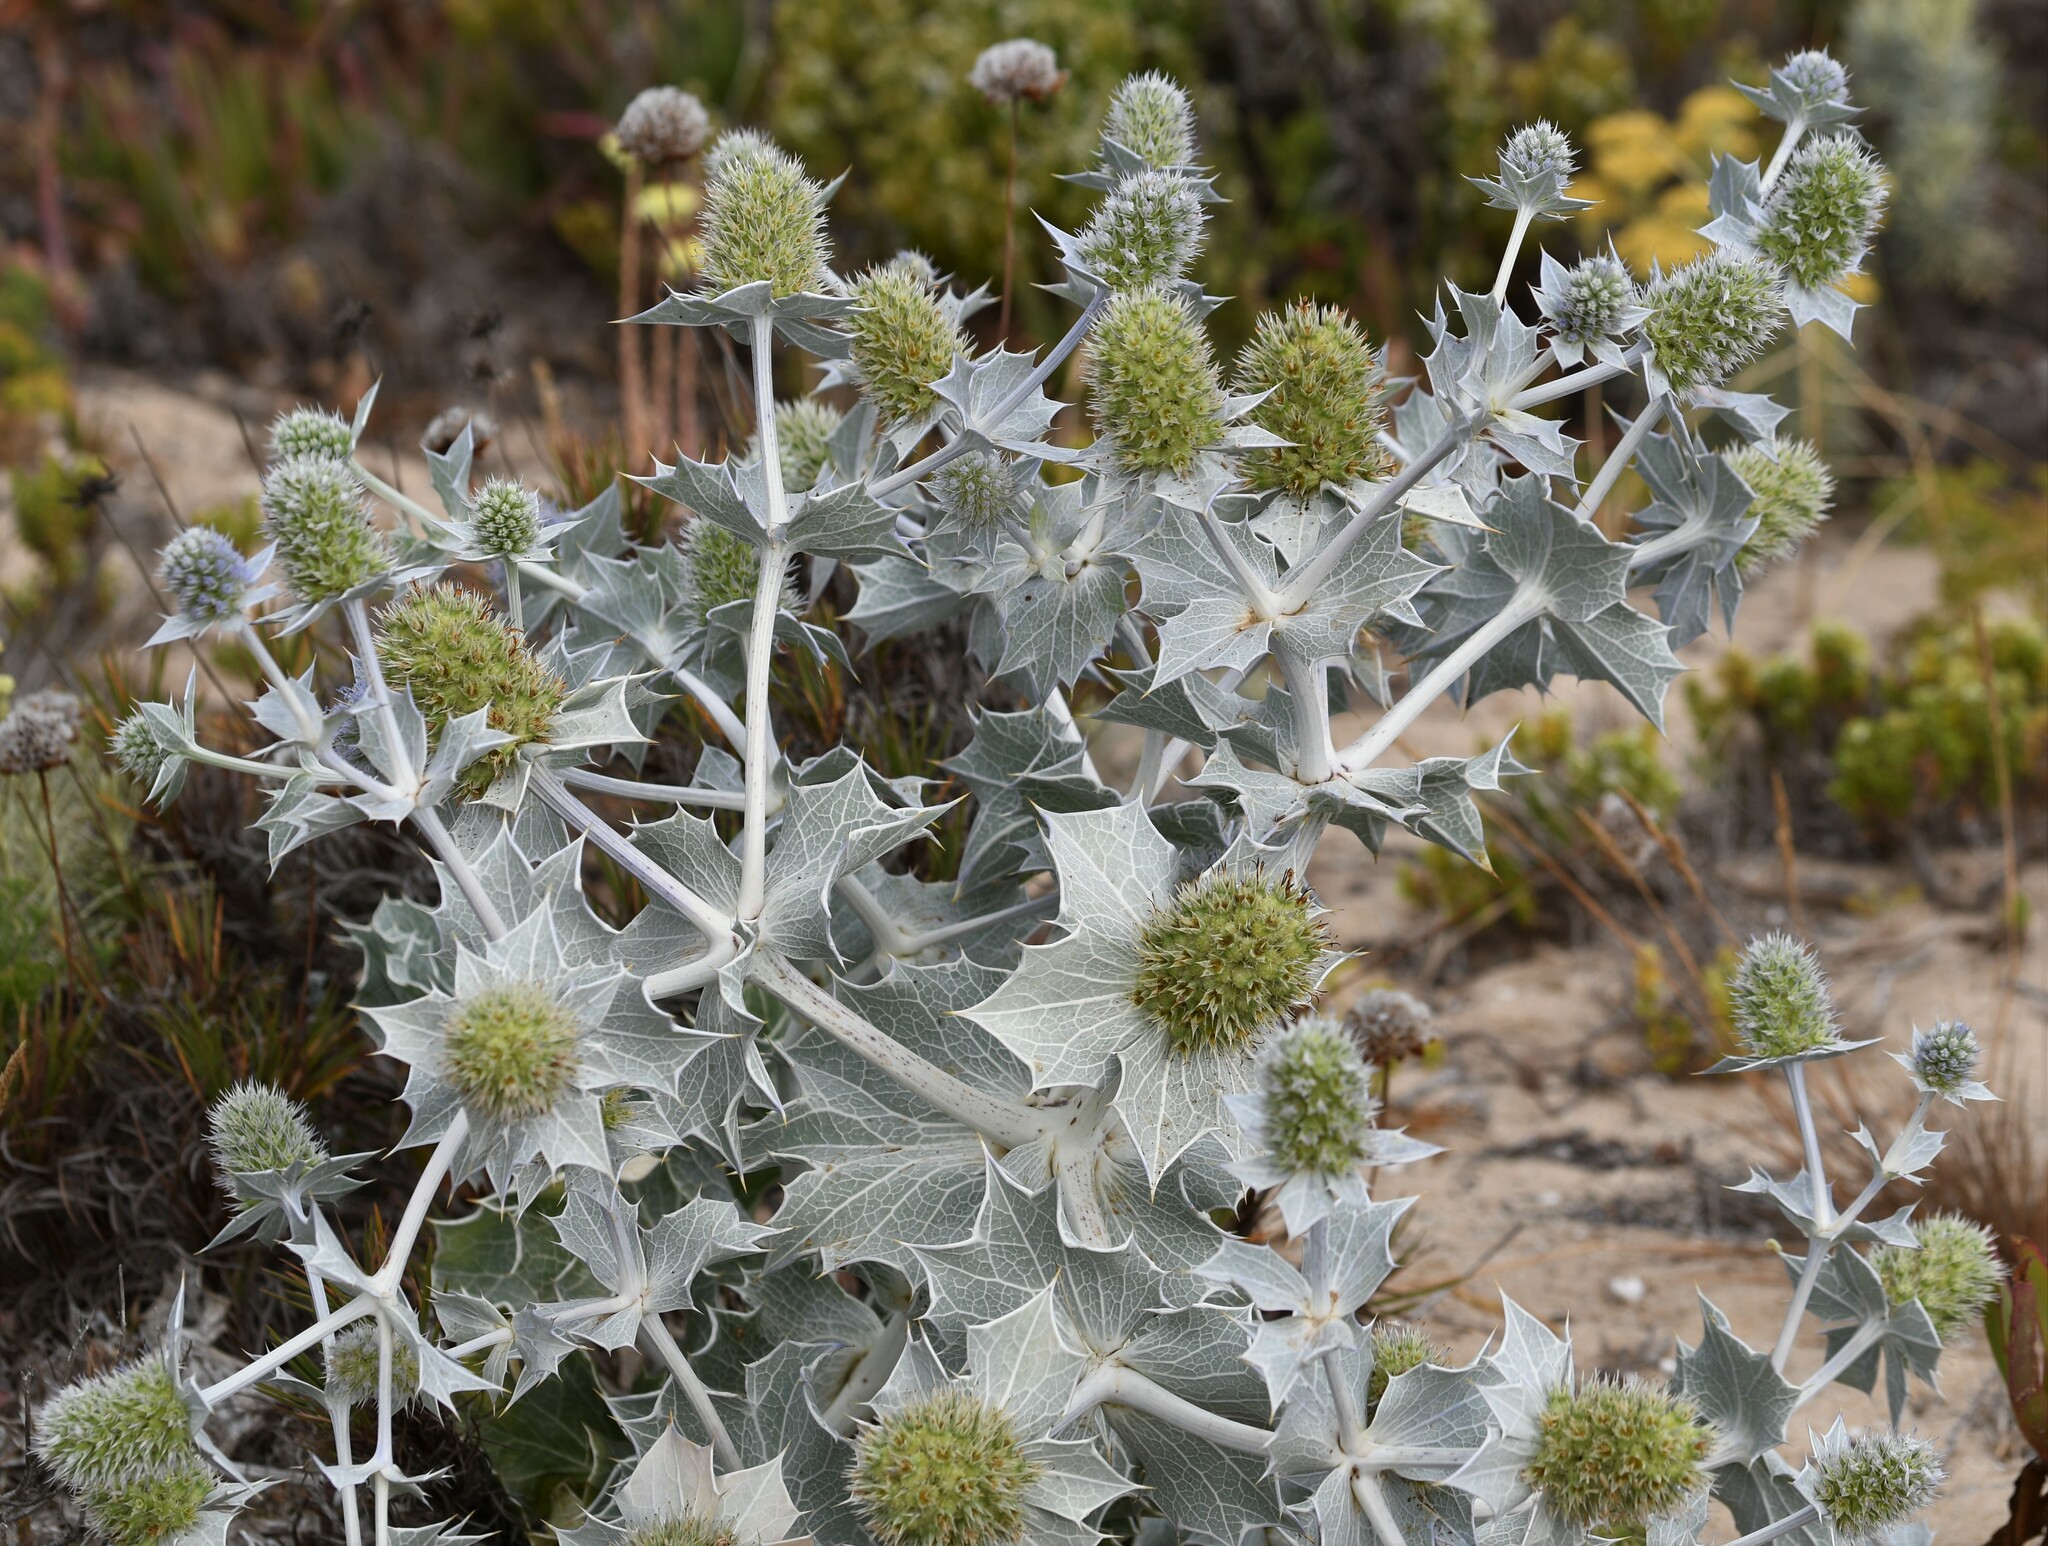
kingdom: Plantae
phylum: Tracheophyta
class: Magnoliopsida
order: Apiales
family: Apiaceae
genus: Eryngium
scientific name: Eryngium maritimum
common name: Sea-holly
